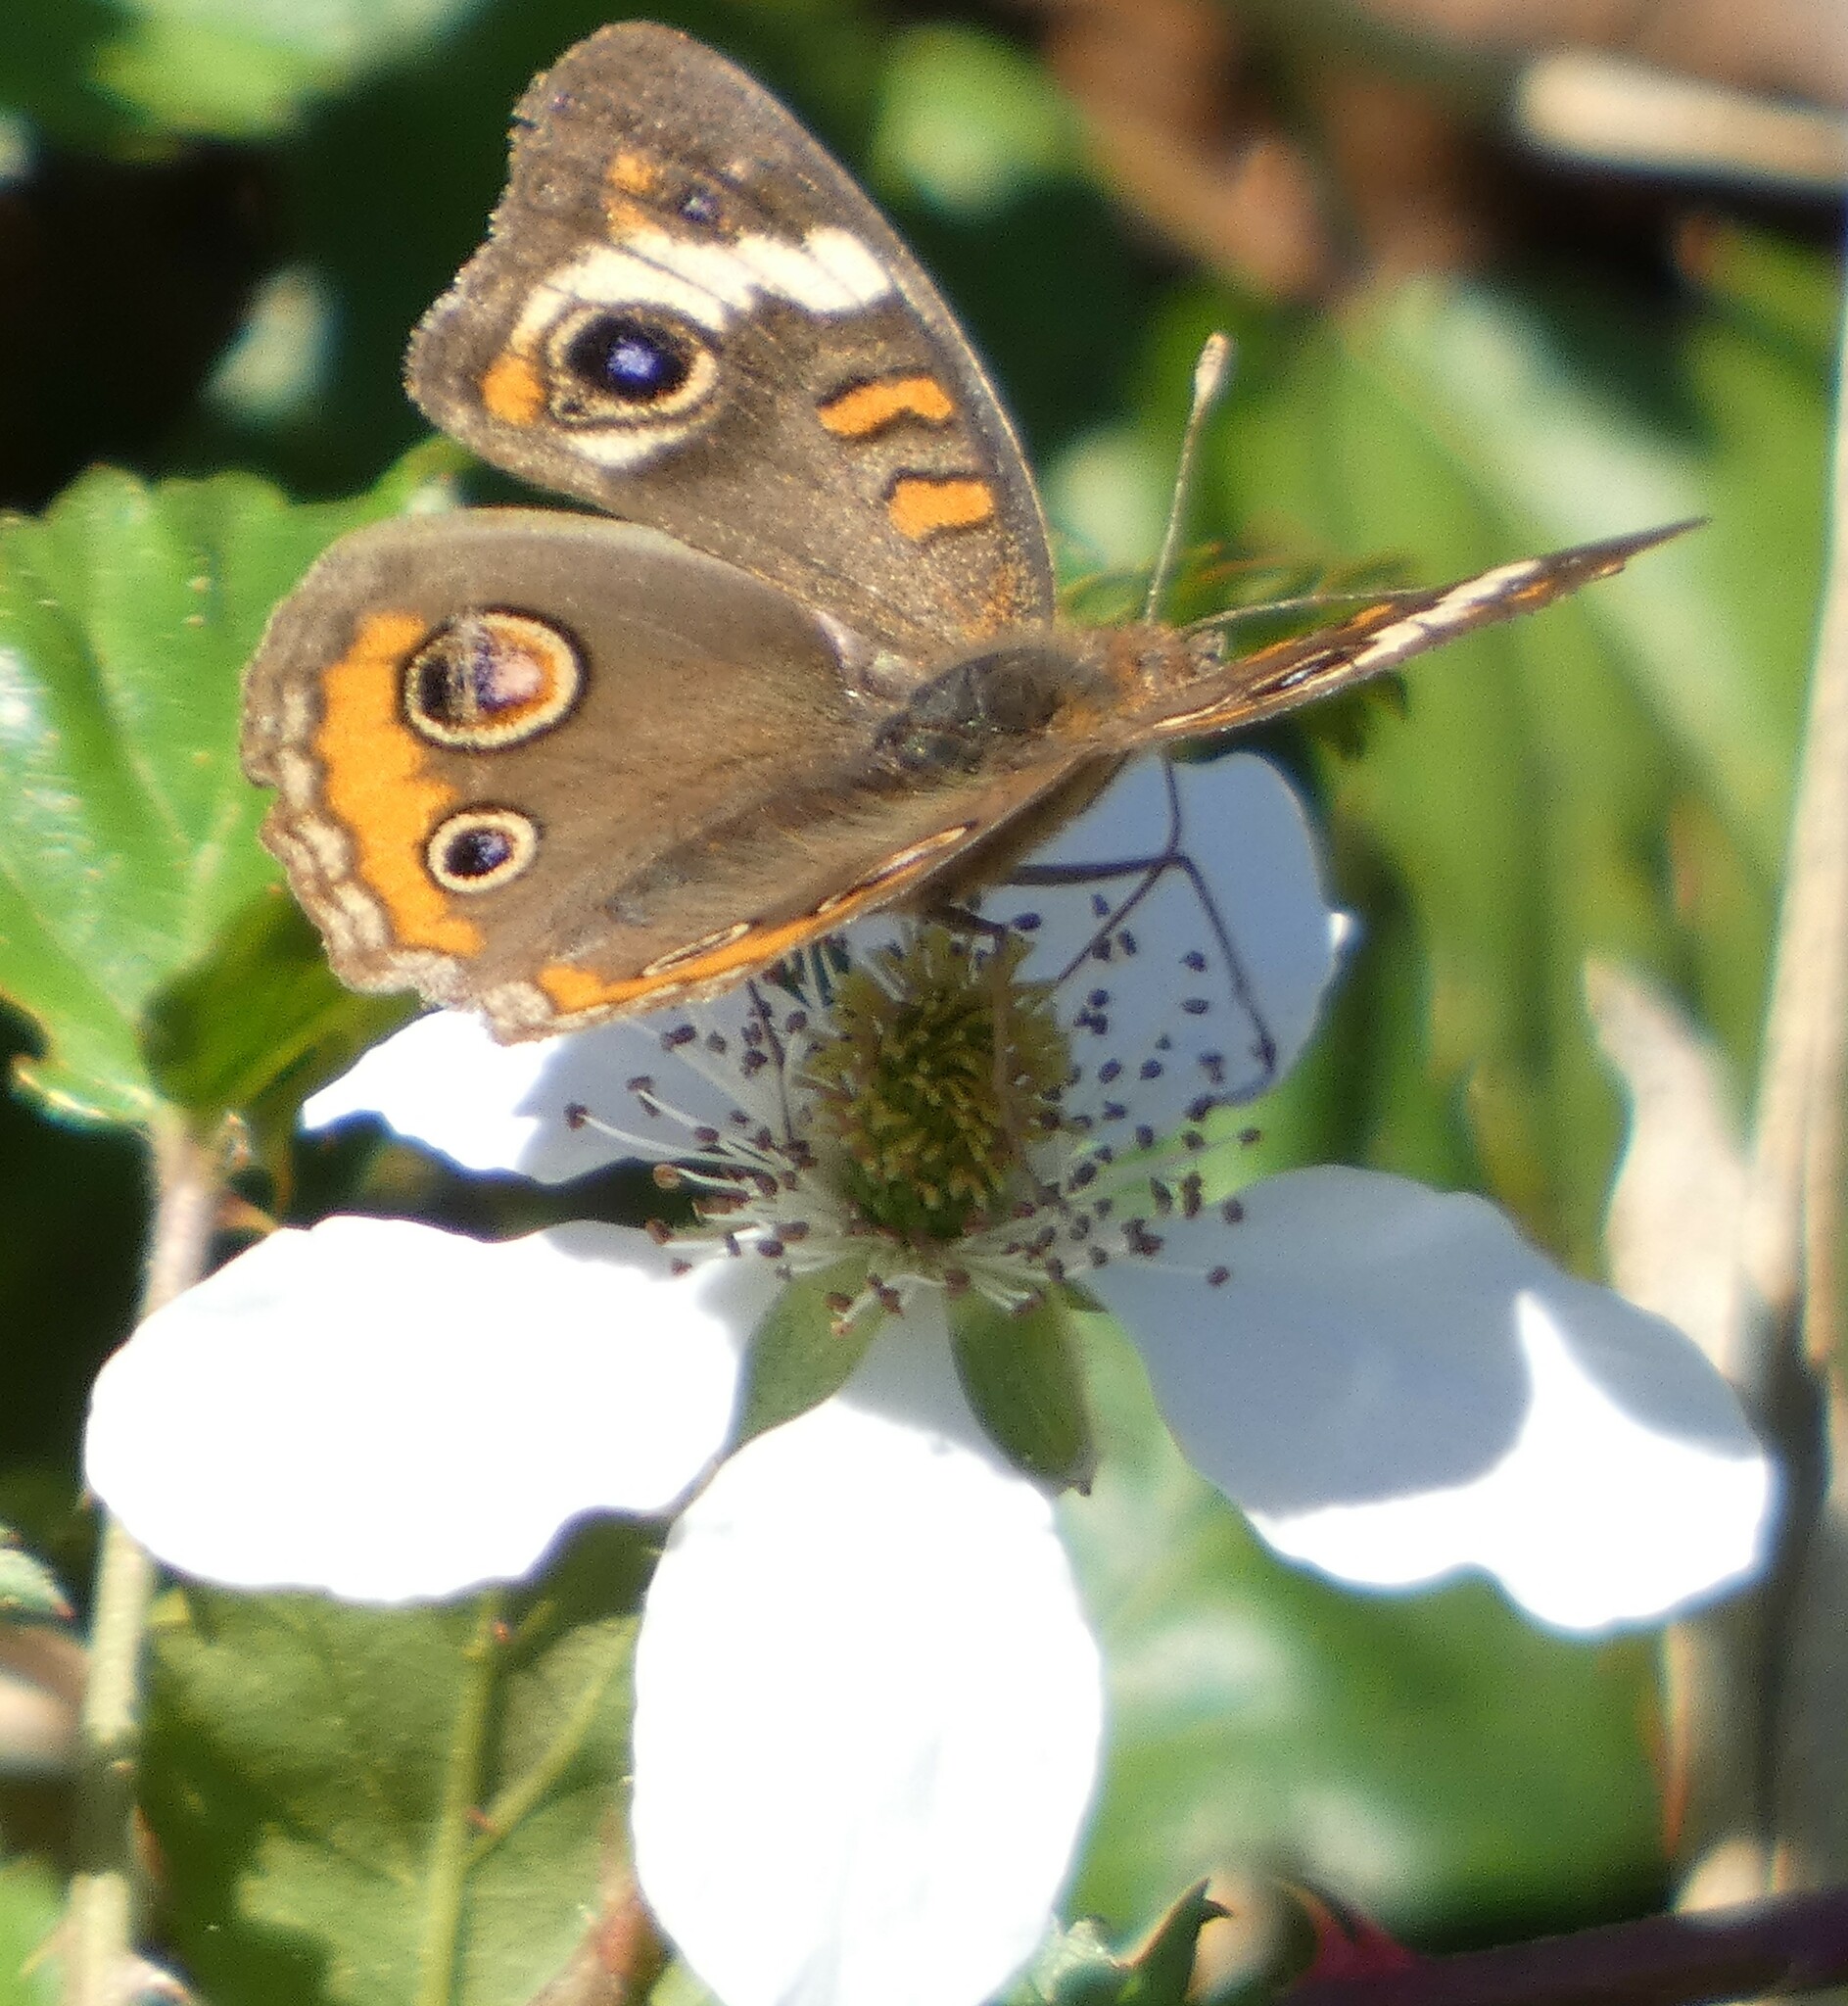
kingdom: Animalia
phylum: Arthropoda
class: Insecta
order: Lepidoptera
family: Nymphalidae
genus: Junonia
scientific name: Junonia coenia
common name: Common buckeye
